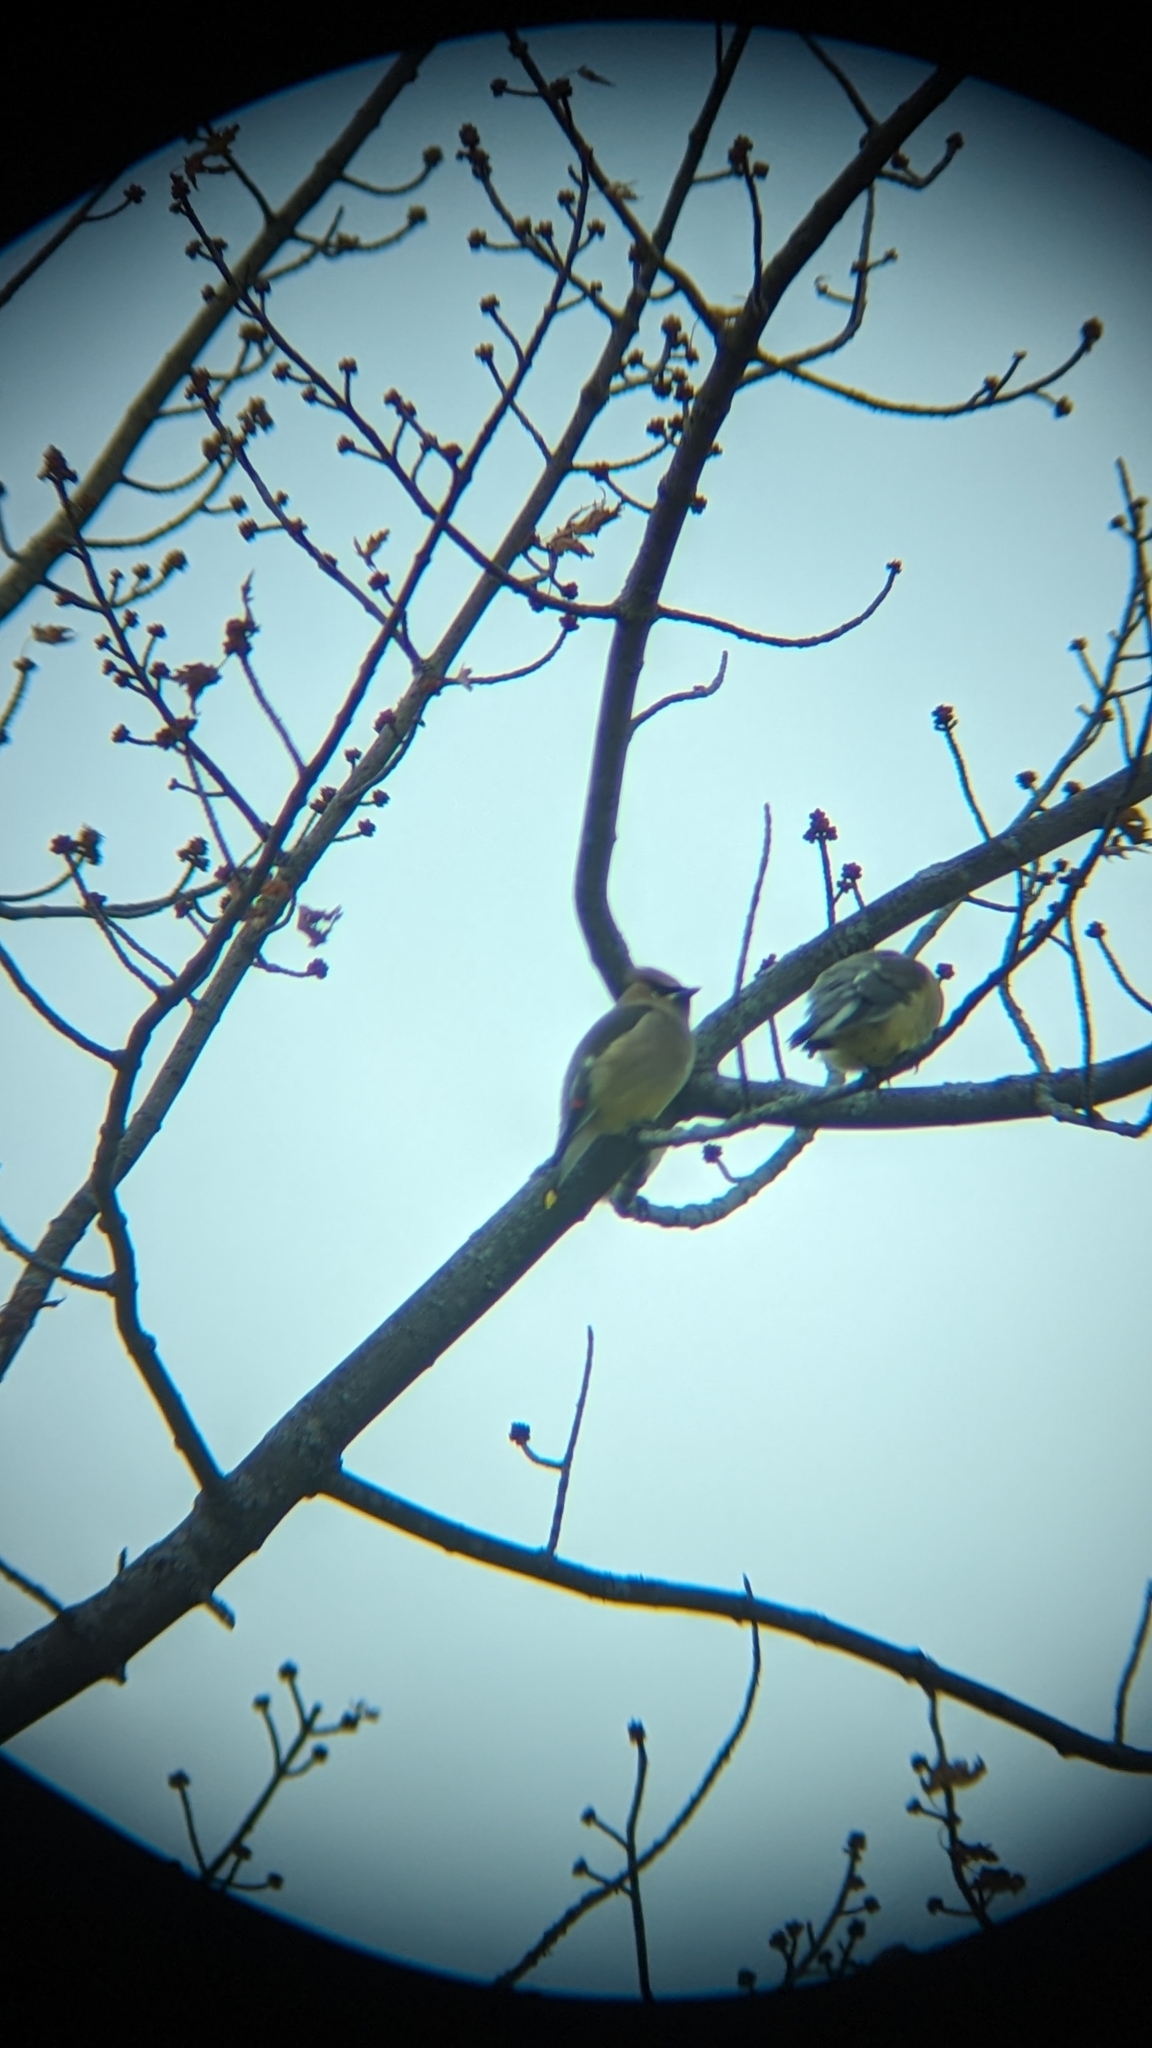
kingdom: Animalia
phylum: Chordata
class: Aves
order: Passeriformes
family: Bombycillidae
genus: Bombycilla
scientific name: Bombycilla cedrorum
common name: Cedar waxwing
